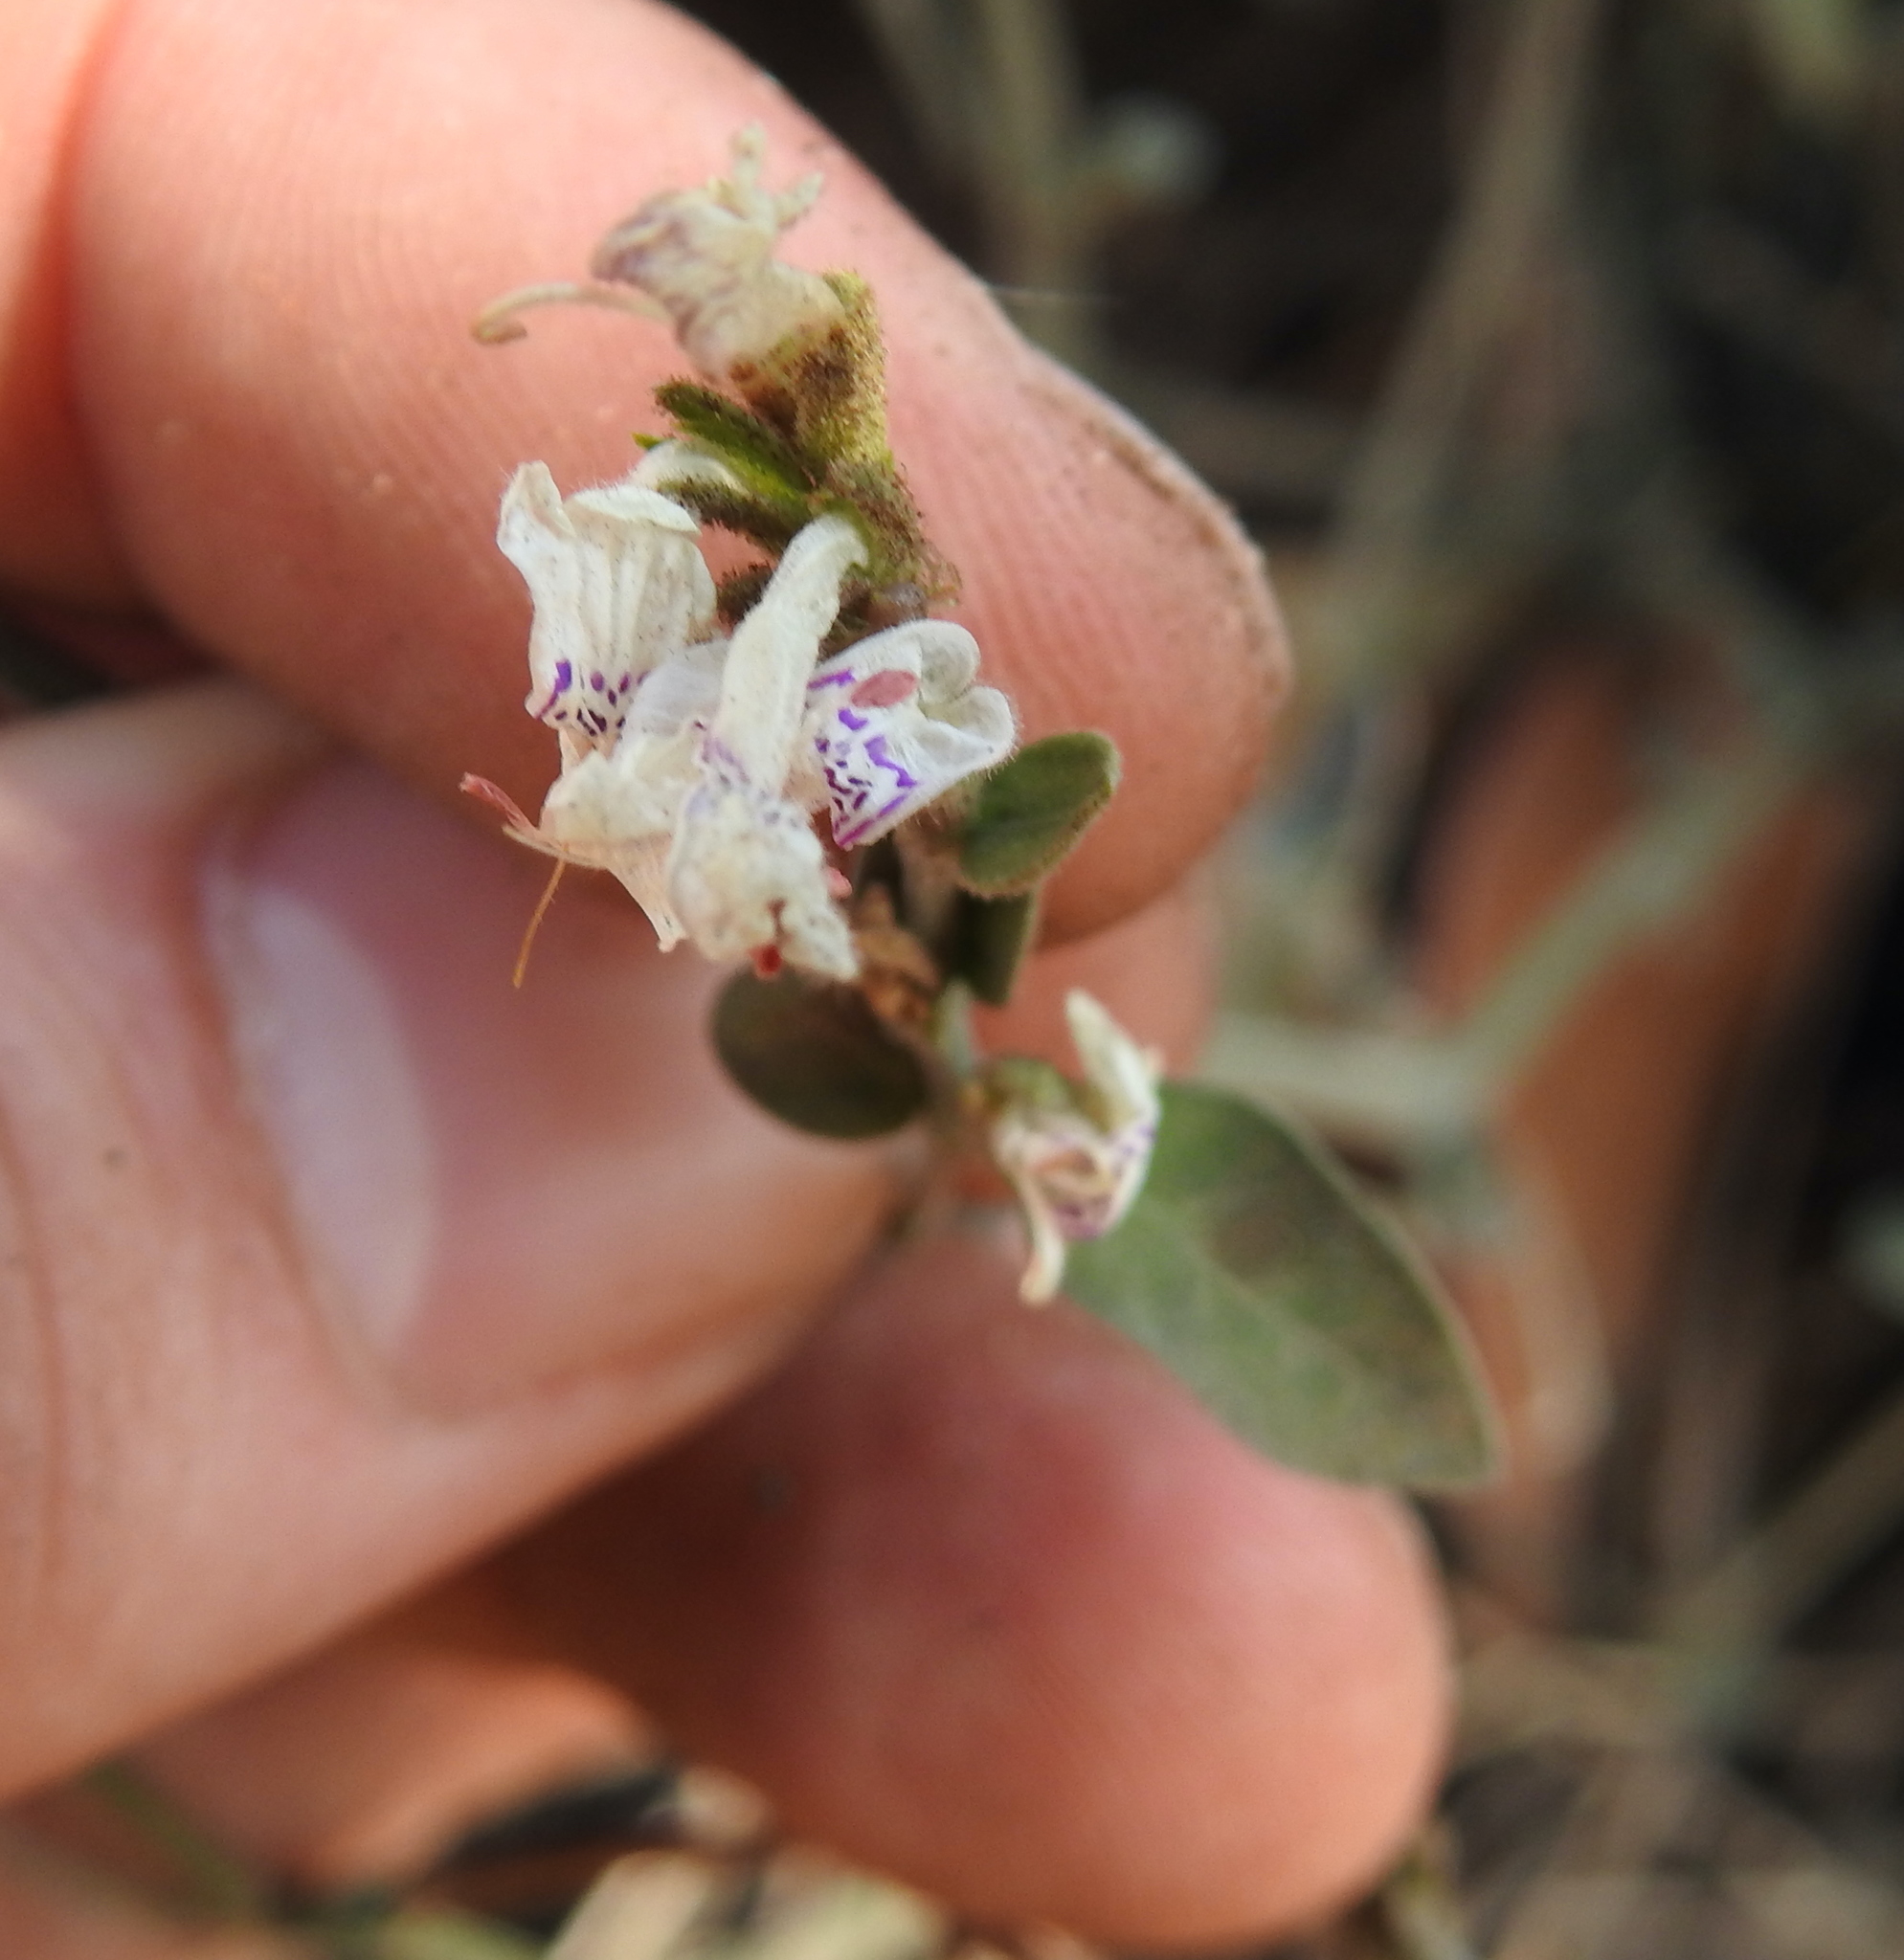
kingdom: Plantae
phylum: Tracheophyta
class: Magnoliopsida
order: Lamiales
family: Acanthaceae
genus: Hypoestes
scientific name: Hypoestes forskaolii
